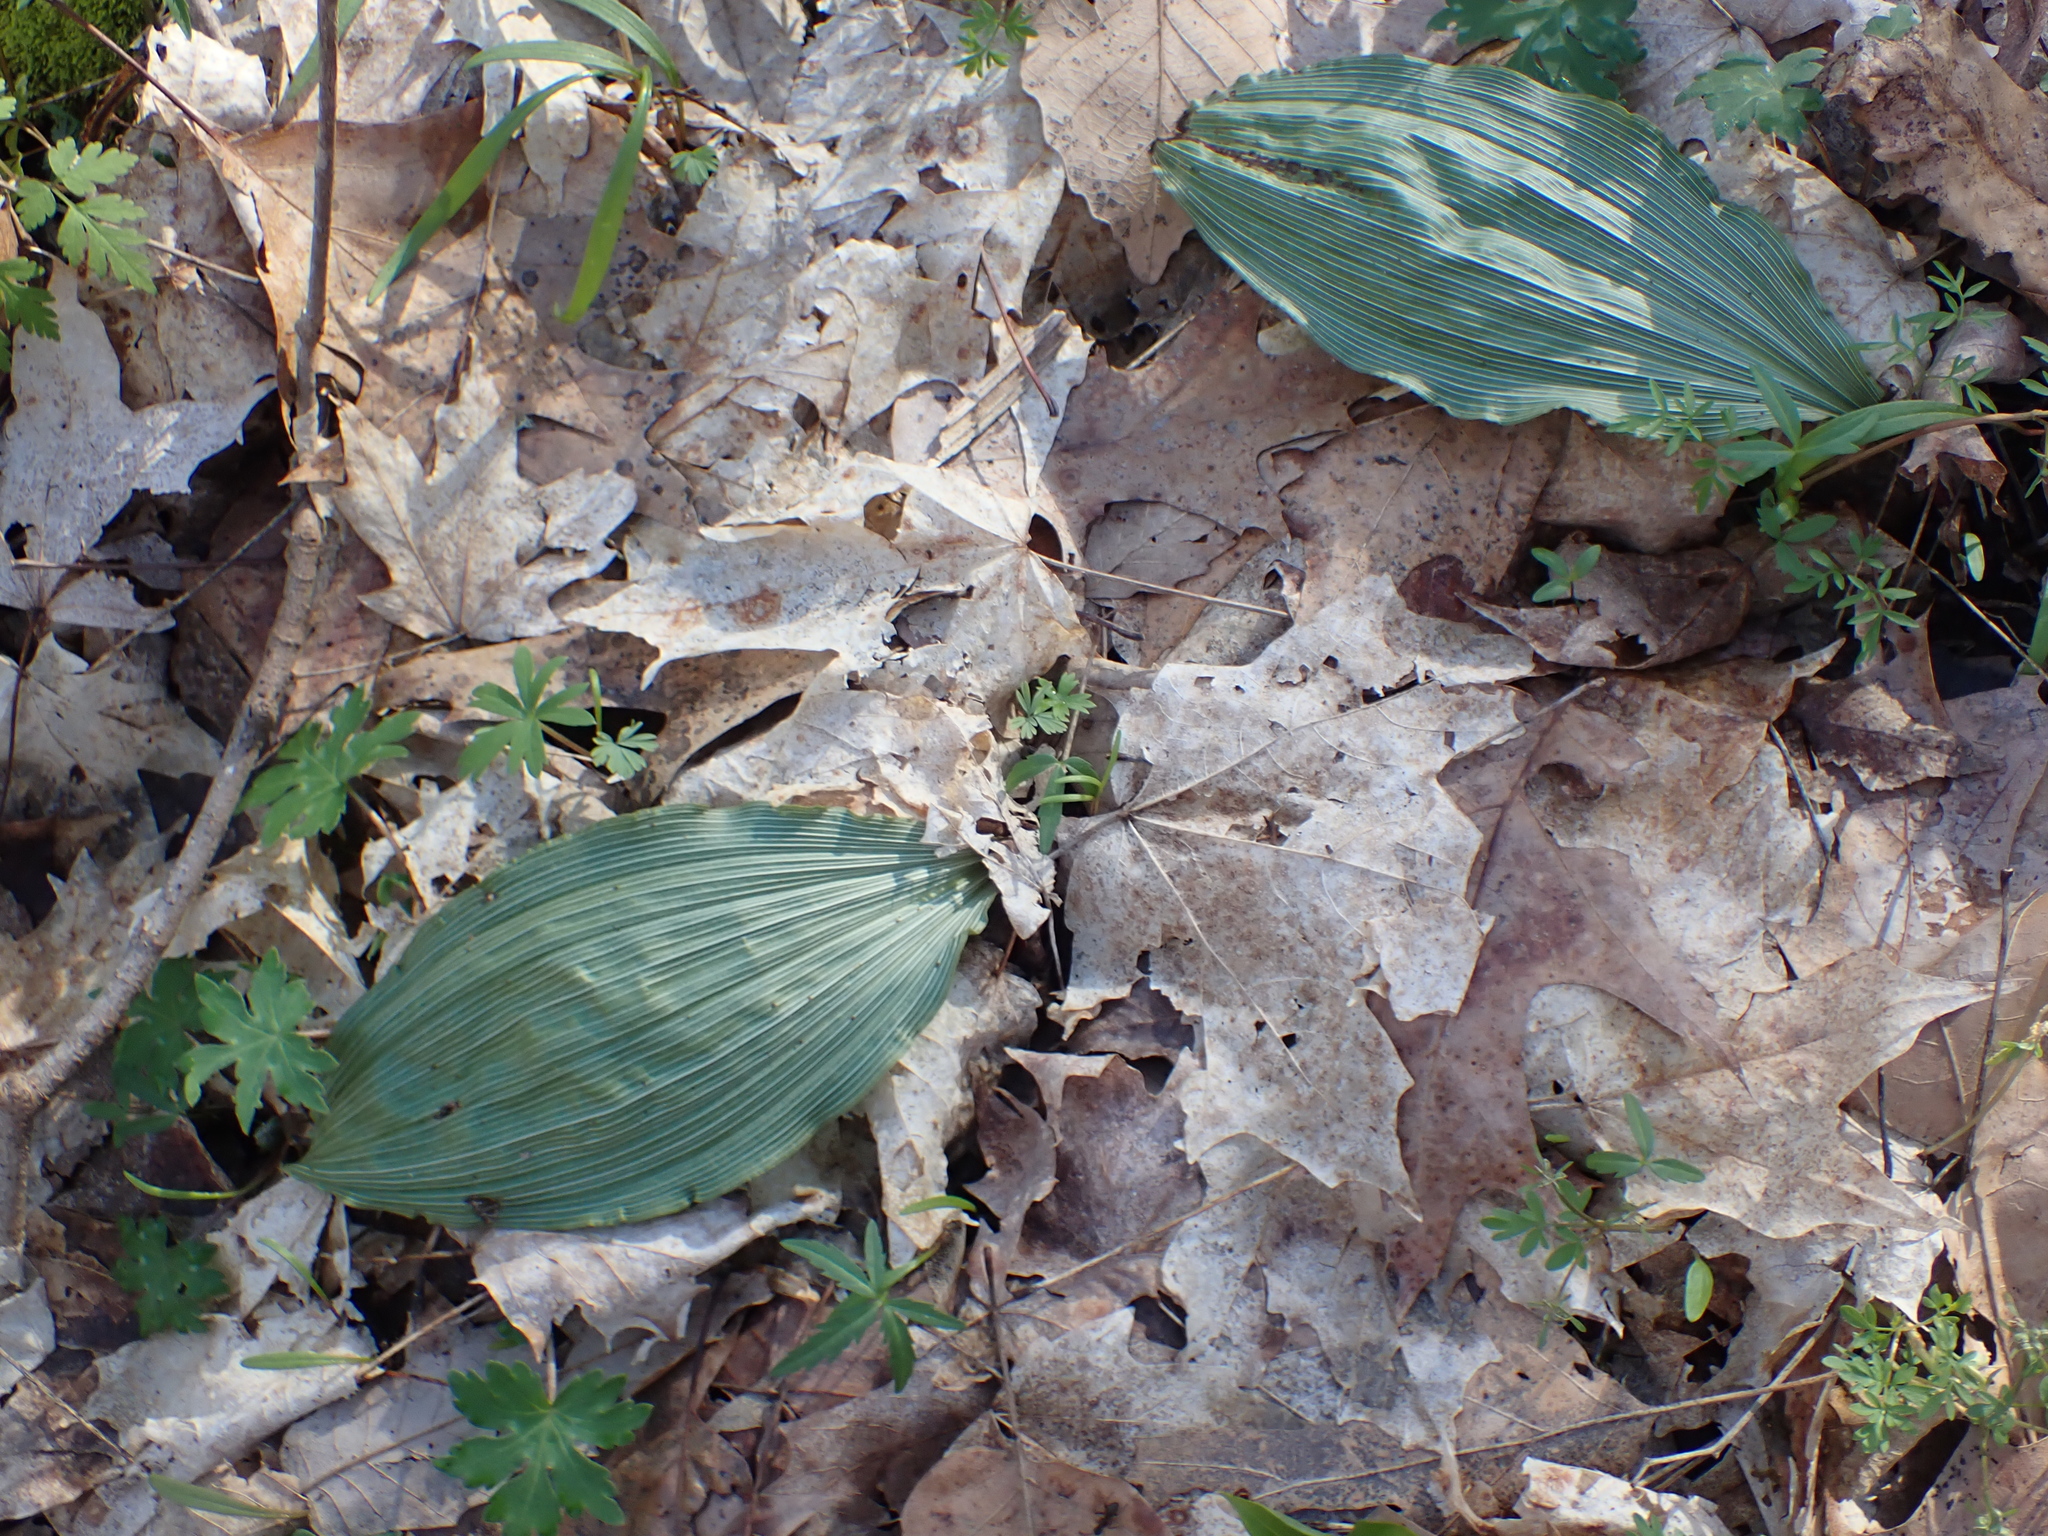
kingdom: Plantae
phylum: Tracheophyta
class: Liliopsida
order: Asparagales
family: Orchidaceae
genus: Aplectrum
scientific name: Aplectrum hyemale
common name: Adam-and-eve
